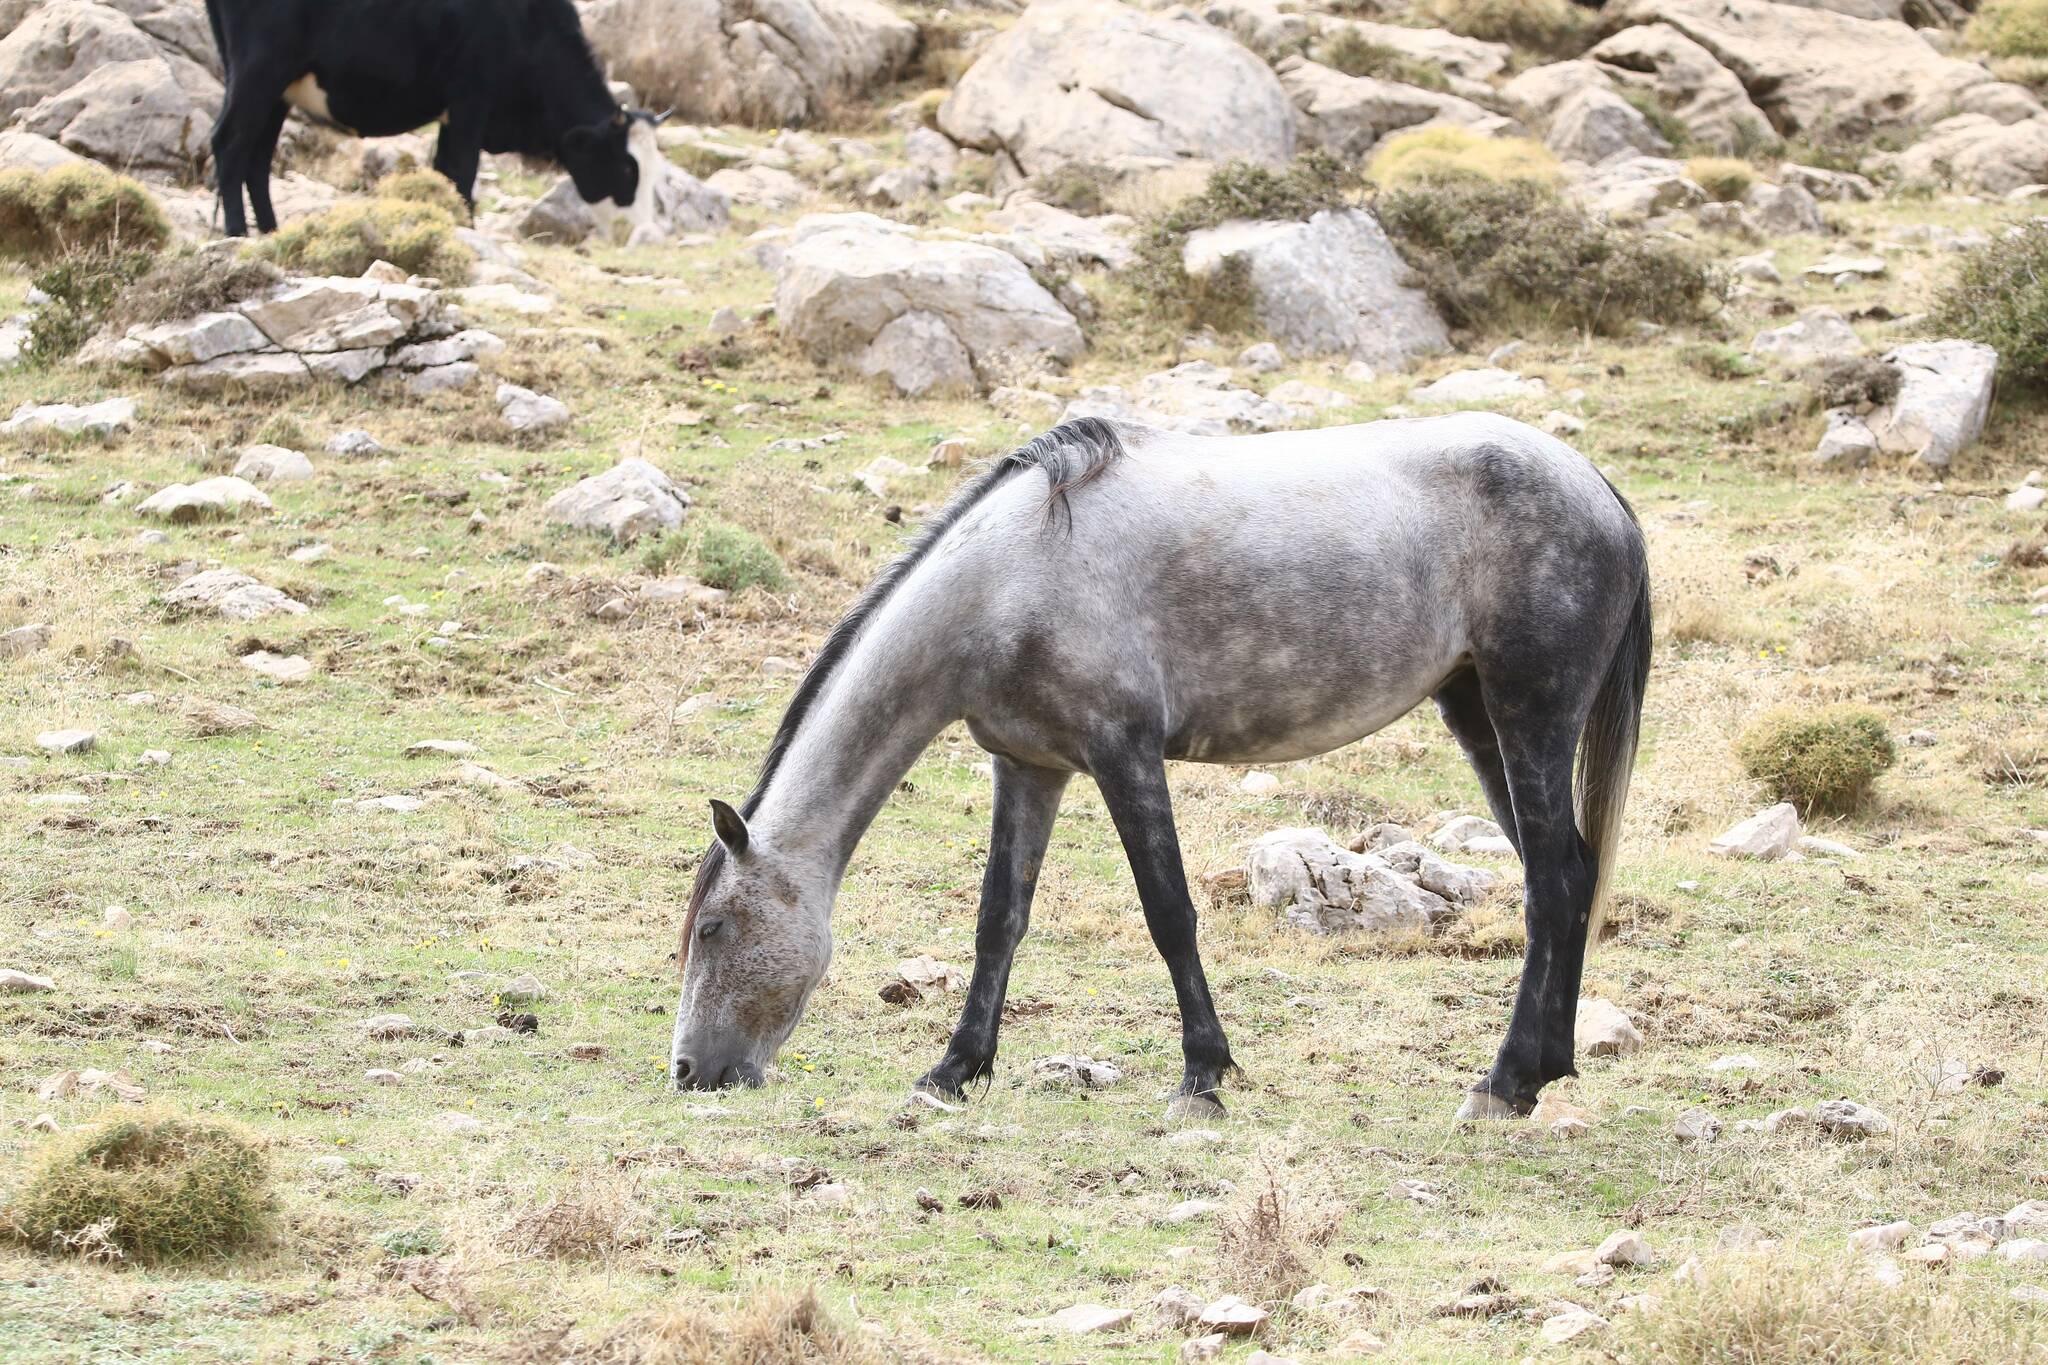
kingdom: Animalia
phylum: Chordata
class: Mammalia
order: Perissodactyla
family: Equidae
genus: Equus
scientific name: Equus caballus
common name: Horse
